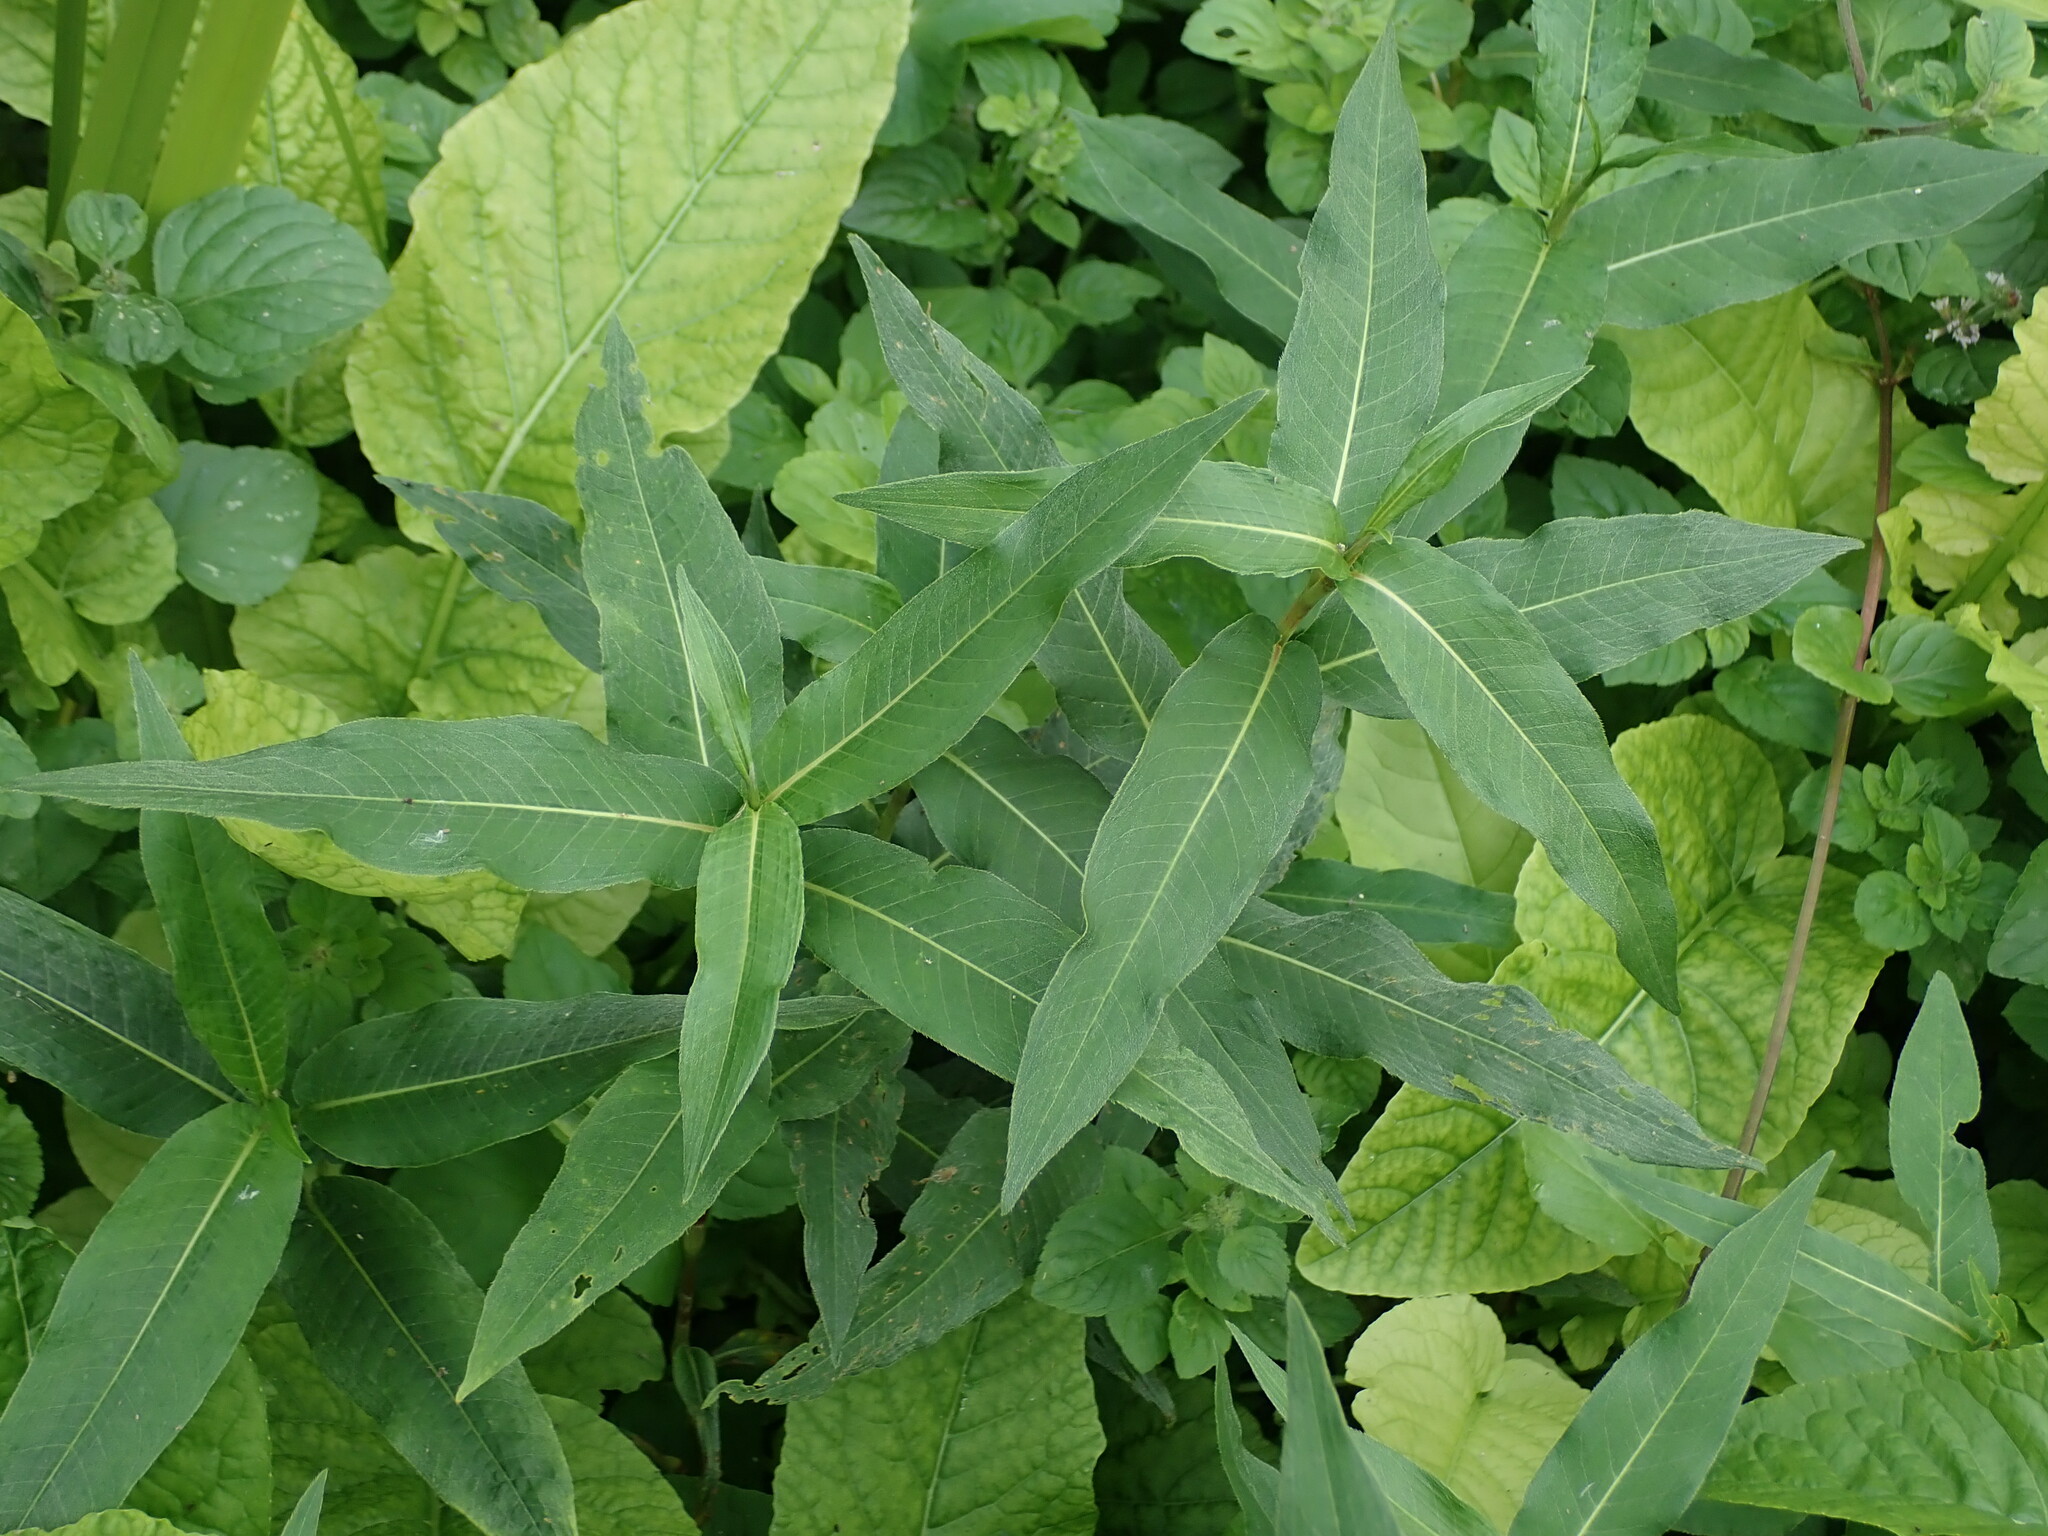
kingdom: Plantae
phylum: Tracheophyta
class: Magnoliopsida
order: Caryophyllales
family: Polygonaceae
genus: Persicaria
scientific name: Persicaria amphibia
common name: Amphibious bistort
